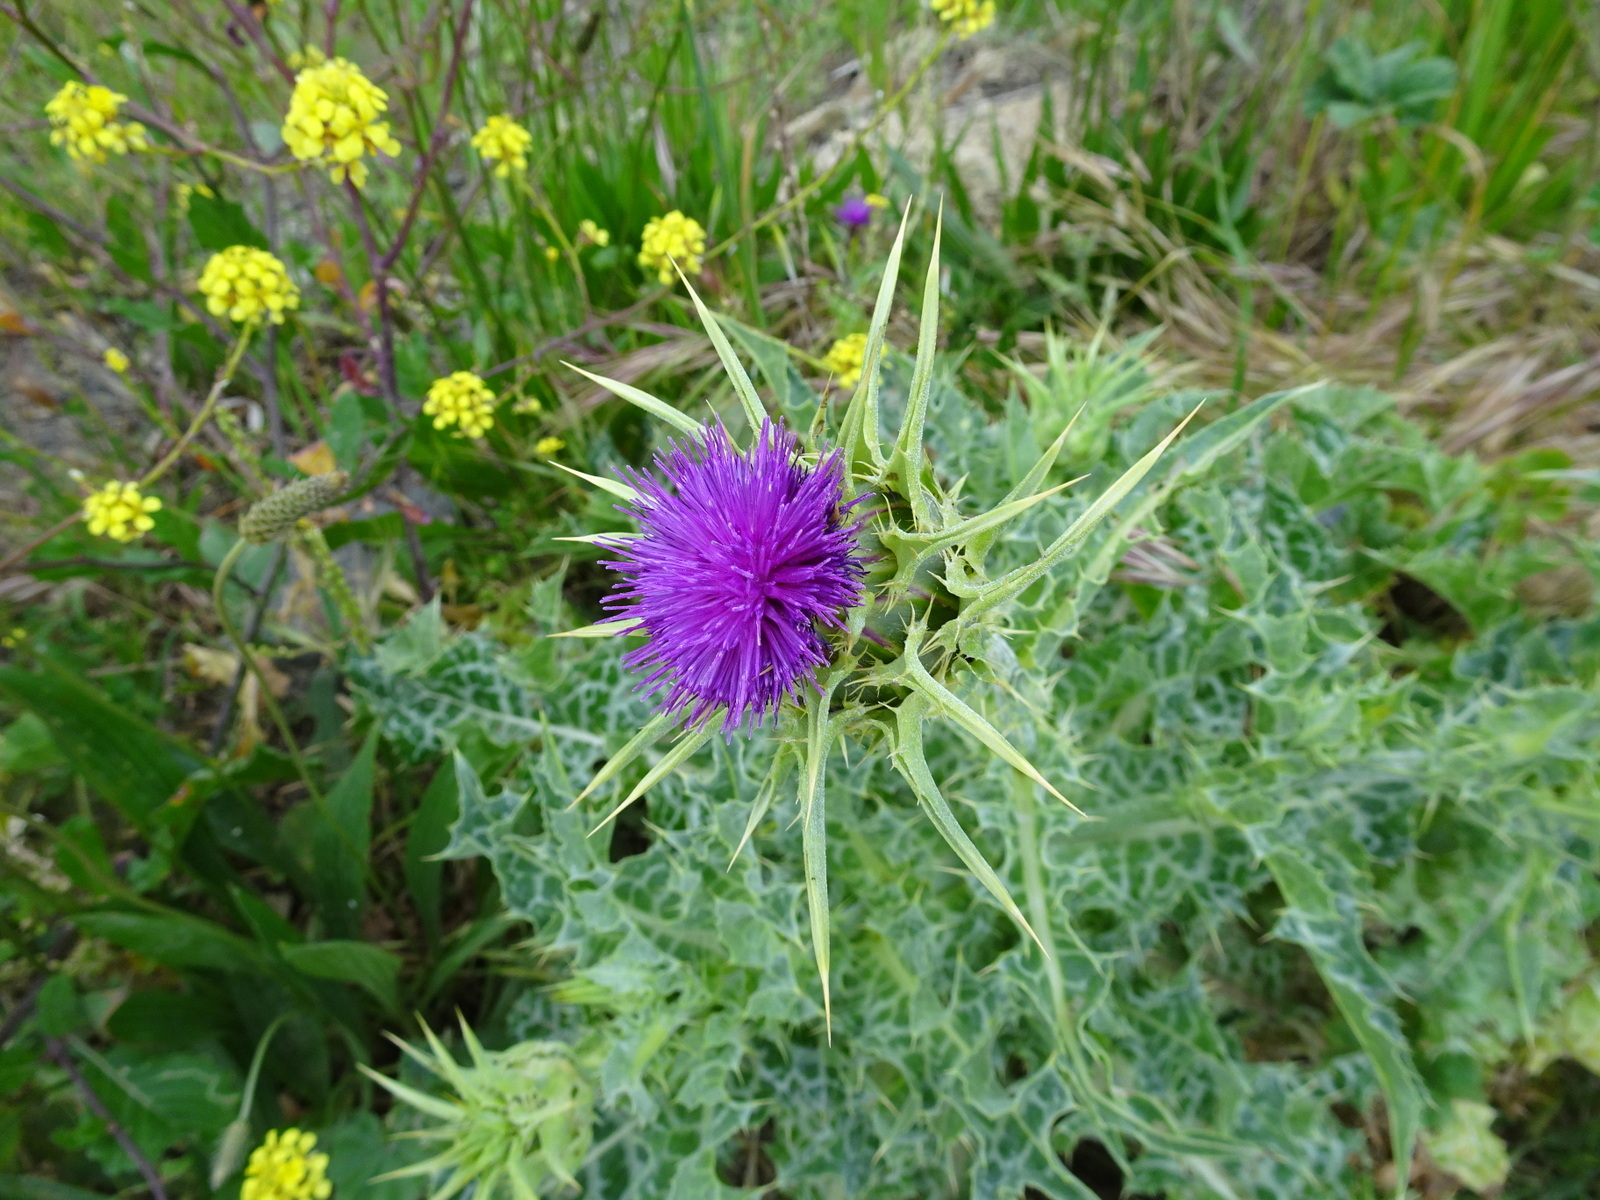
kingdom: Plantae
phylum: Tracheophyta
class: Magnoliopsida
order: Asterales
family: Asteraceae
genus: Silybum
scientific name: Silybum marianum
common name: Milk thistle
